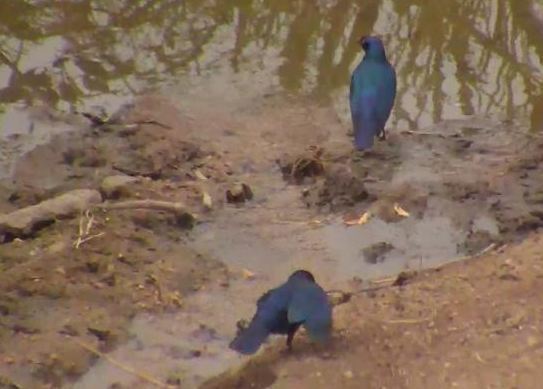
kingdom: Animalia
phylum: Chordata
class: Aves
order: Passeriformes
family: Sturnidae
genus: Lamprotornis
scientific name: Lamprotornis chalybaeus
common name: Greater blue-eared starling
